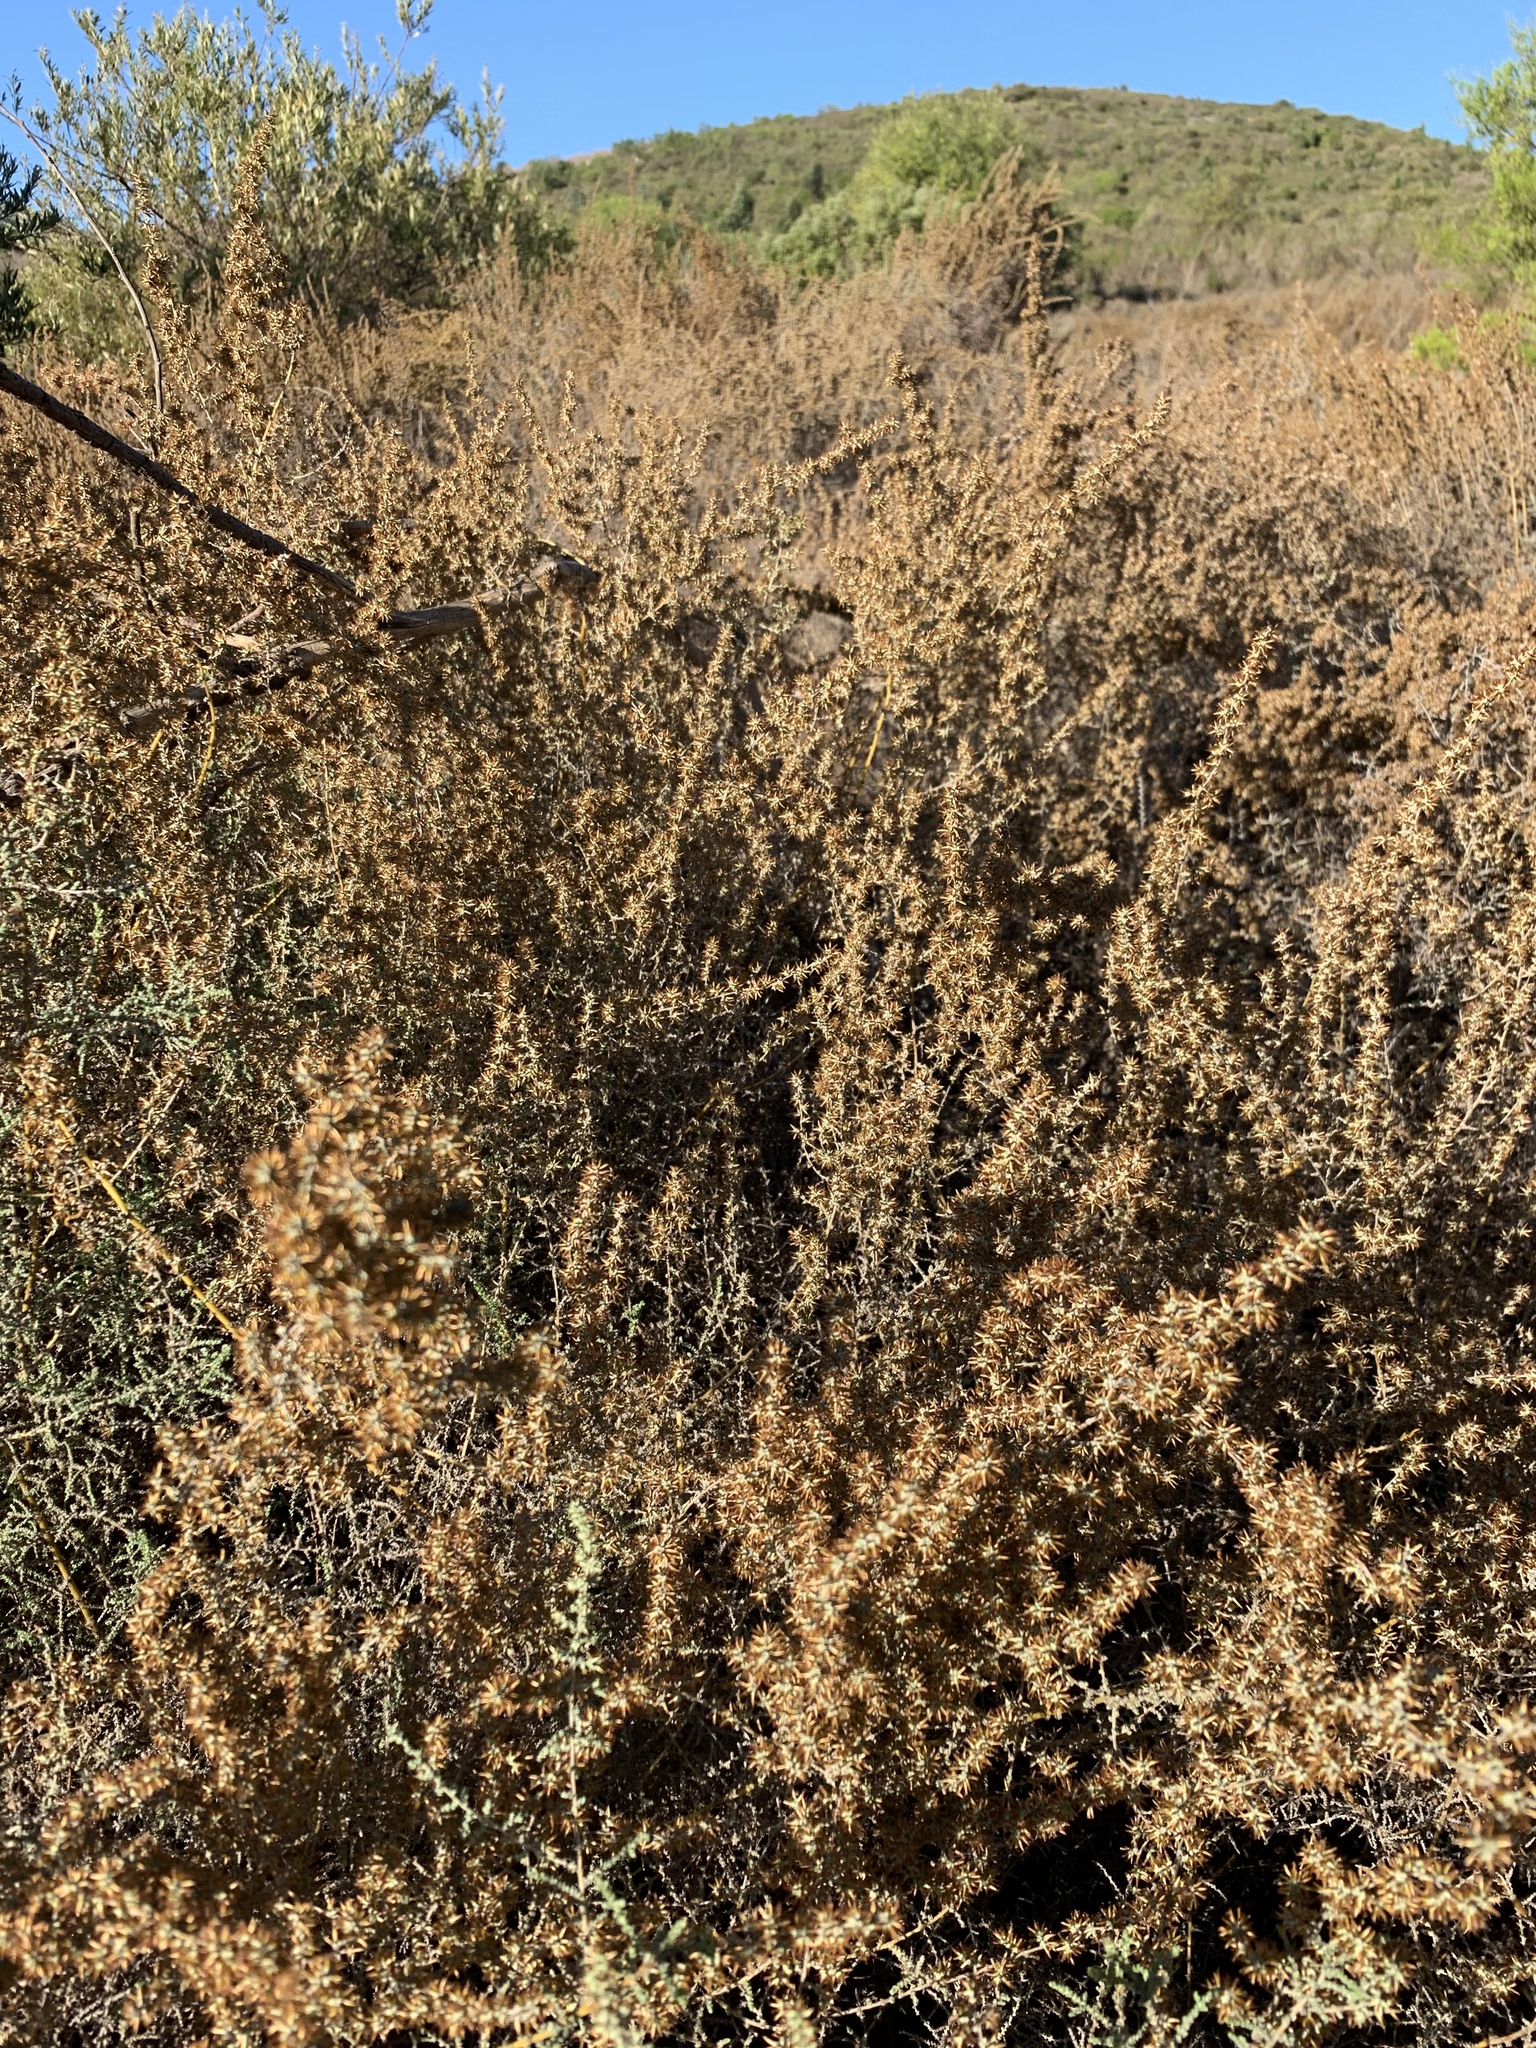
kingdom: Plantae
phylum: Tracheophyta
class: Magnoliopsida
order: Asterales
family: Asteraceae
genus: Seriphium
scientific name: Seriphium plumosum
